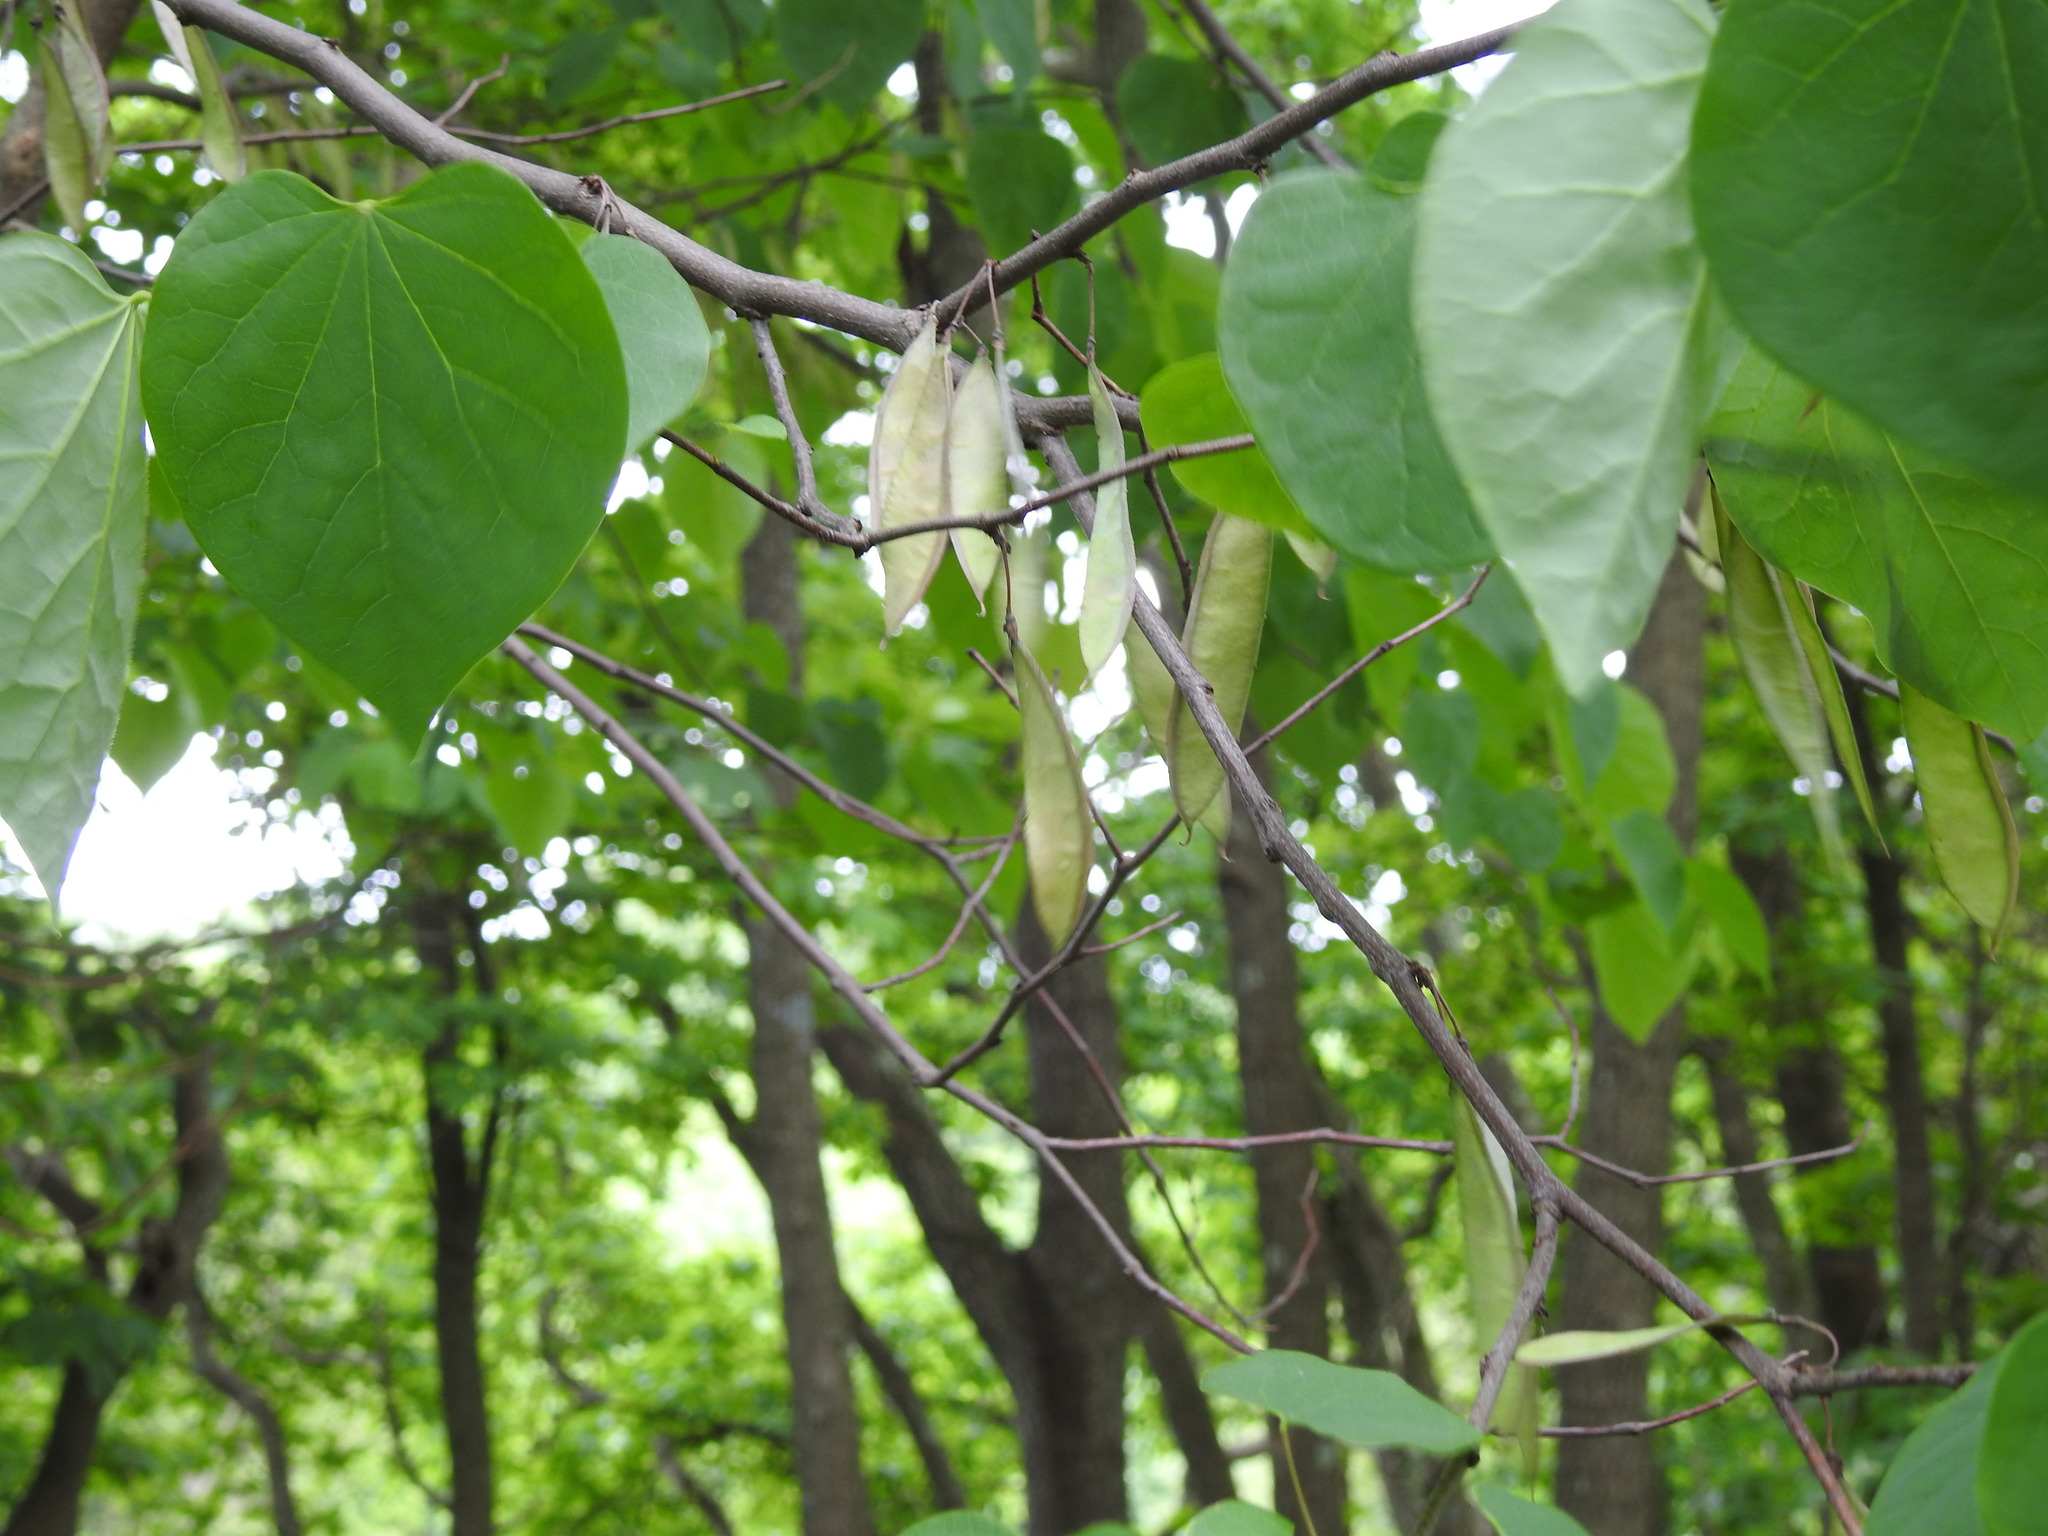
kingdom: Plantae
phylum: Tracheophyta
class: Magnoliopsida
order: Fabales
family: Fabaceae
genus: Cercis
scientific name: Cercis canadensis
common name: Eastern redbud
